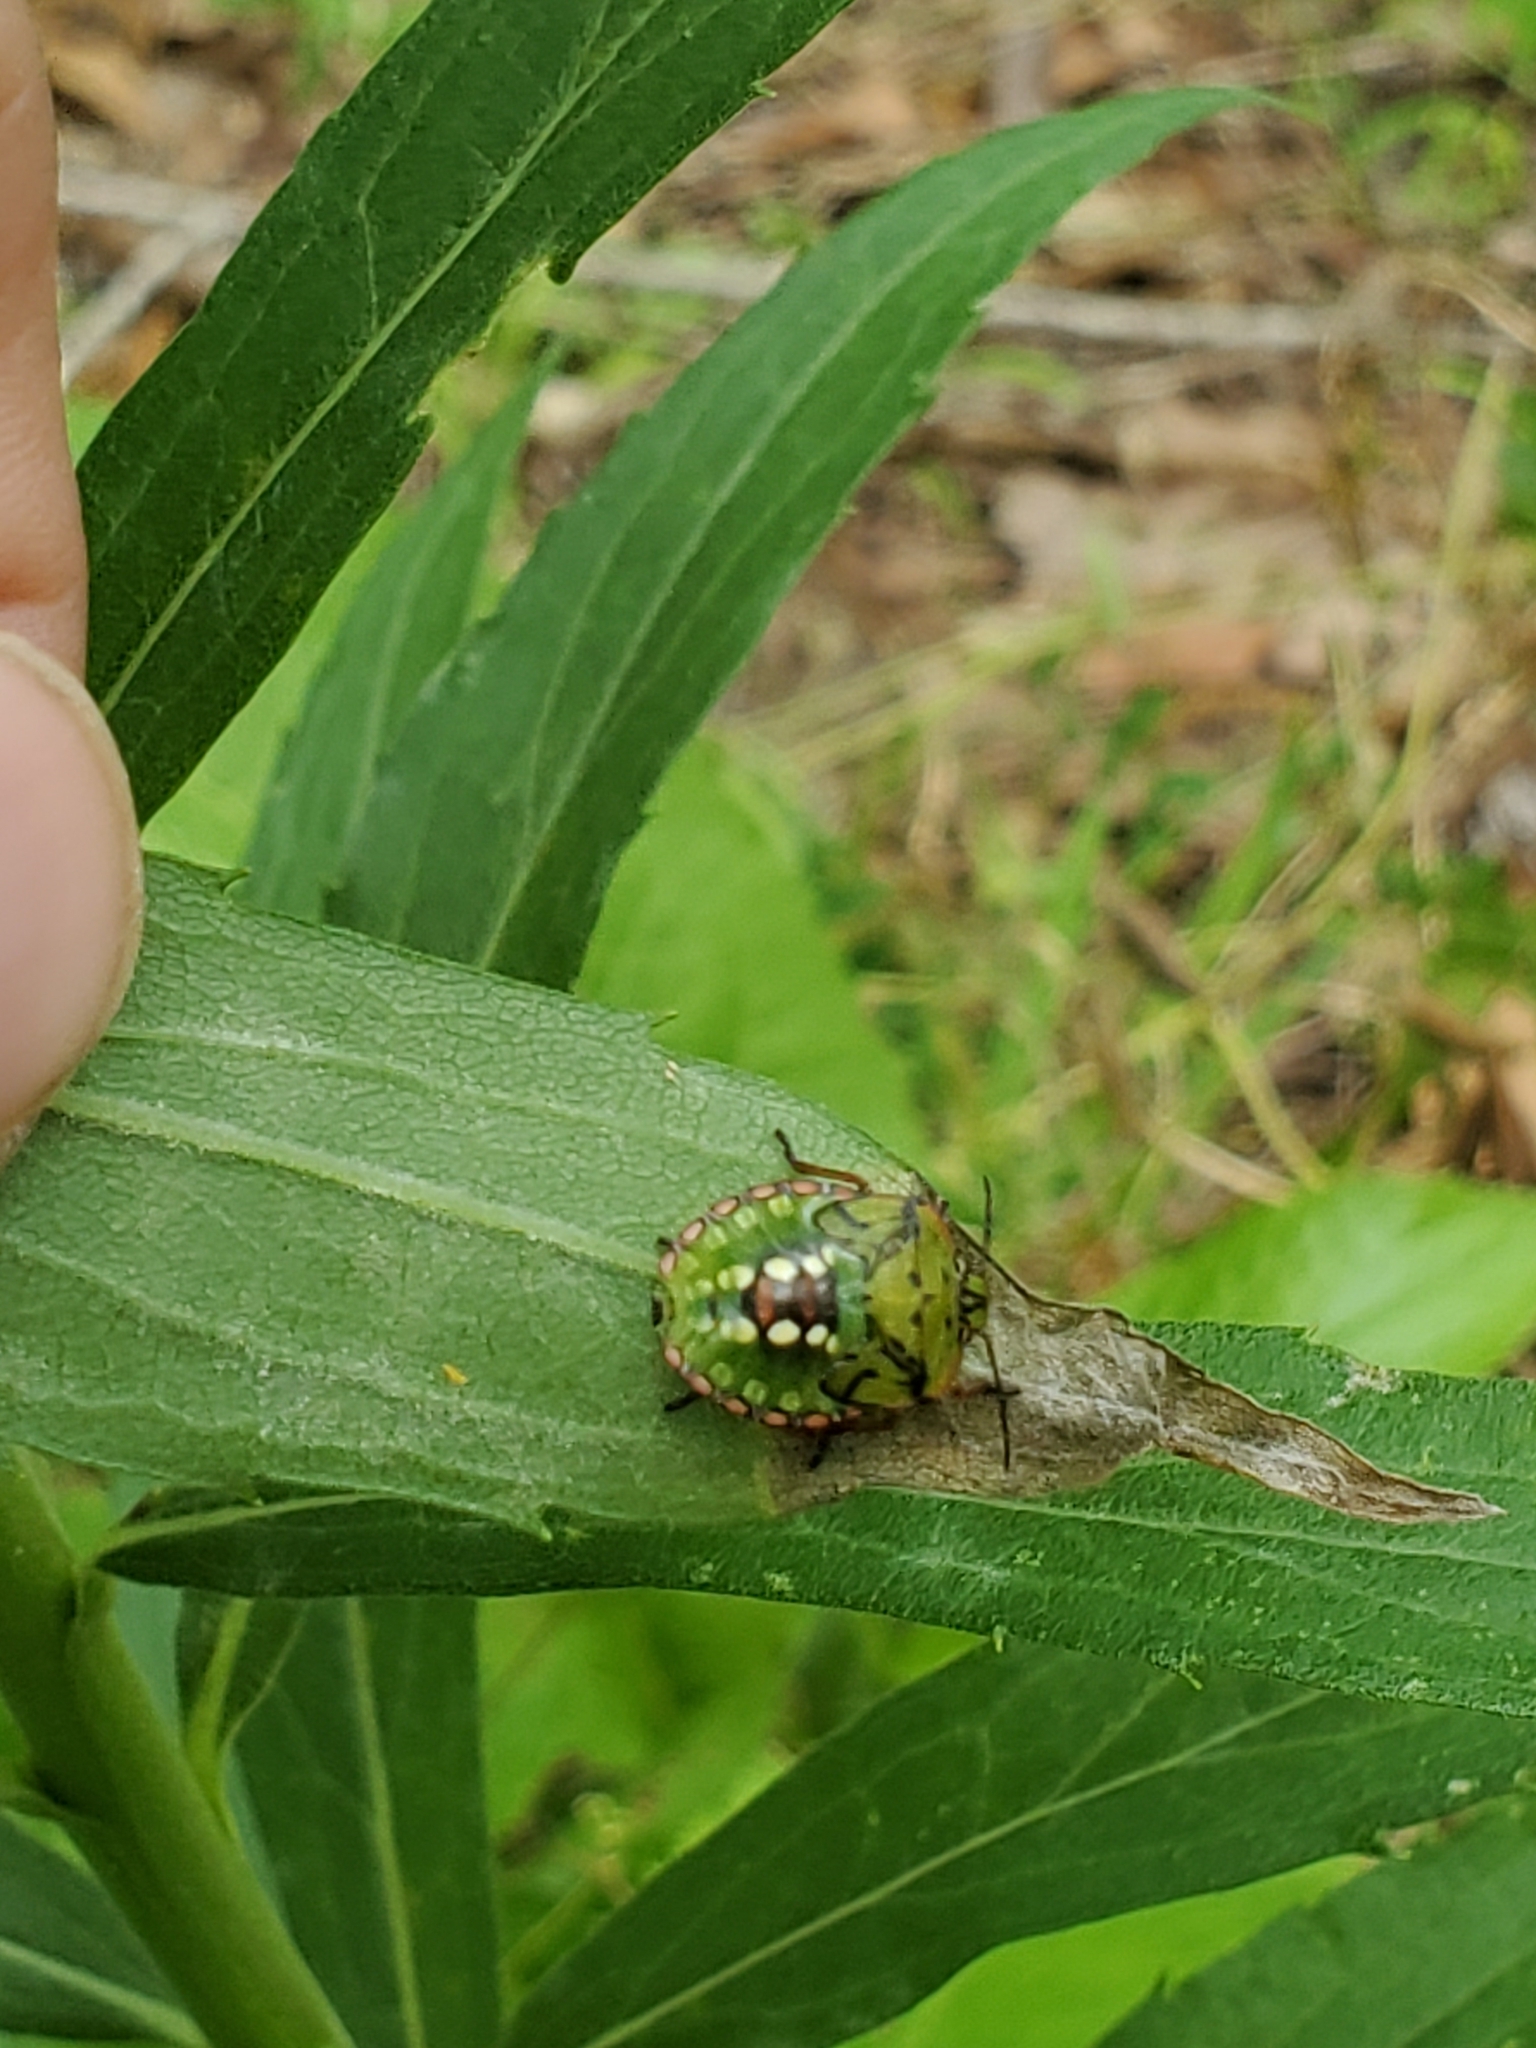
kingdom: Animalia
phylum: Arthropoda
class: Insecta
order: Hemiptera
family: Pentatomidae
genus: Nezara
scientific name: Nezara viridula
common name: Southern green stink bug
